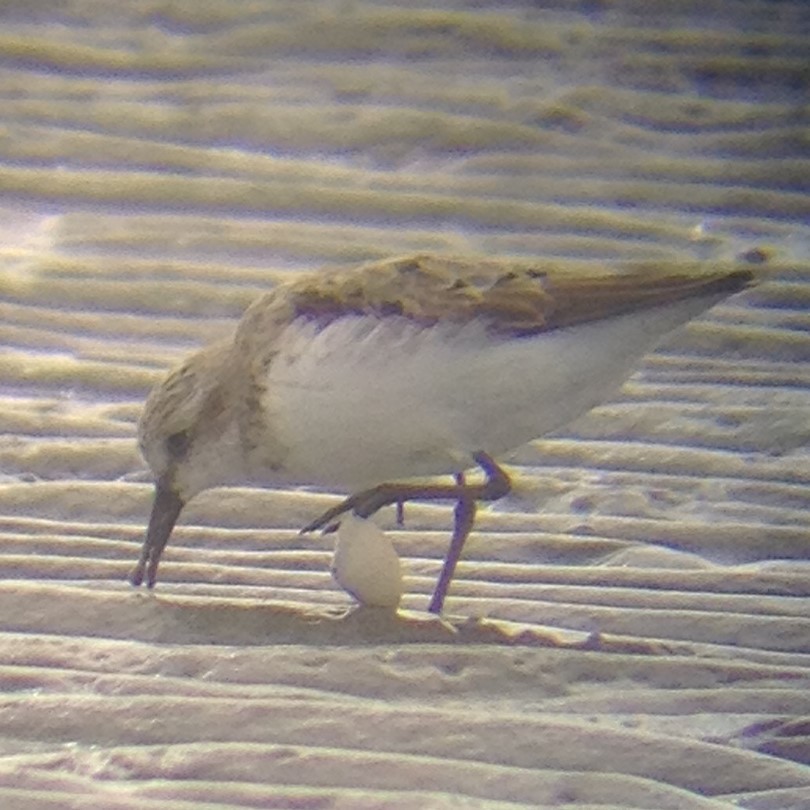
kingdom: Animalia
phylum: Chordata
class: Aves
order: Charadriiformes
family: Scolopacidae
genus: Calidris
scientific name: Calidris pusilla
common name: Semipalmated sandpiper
